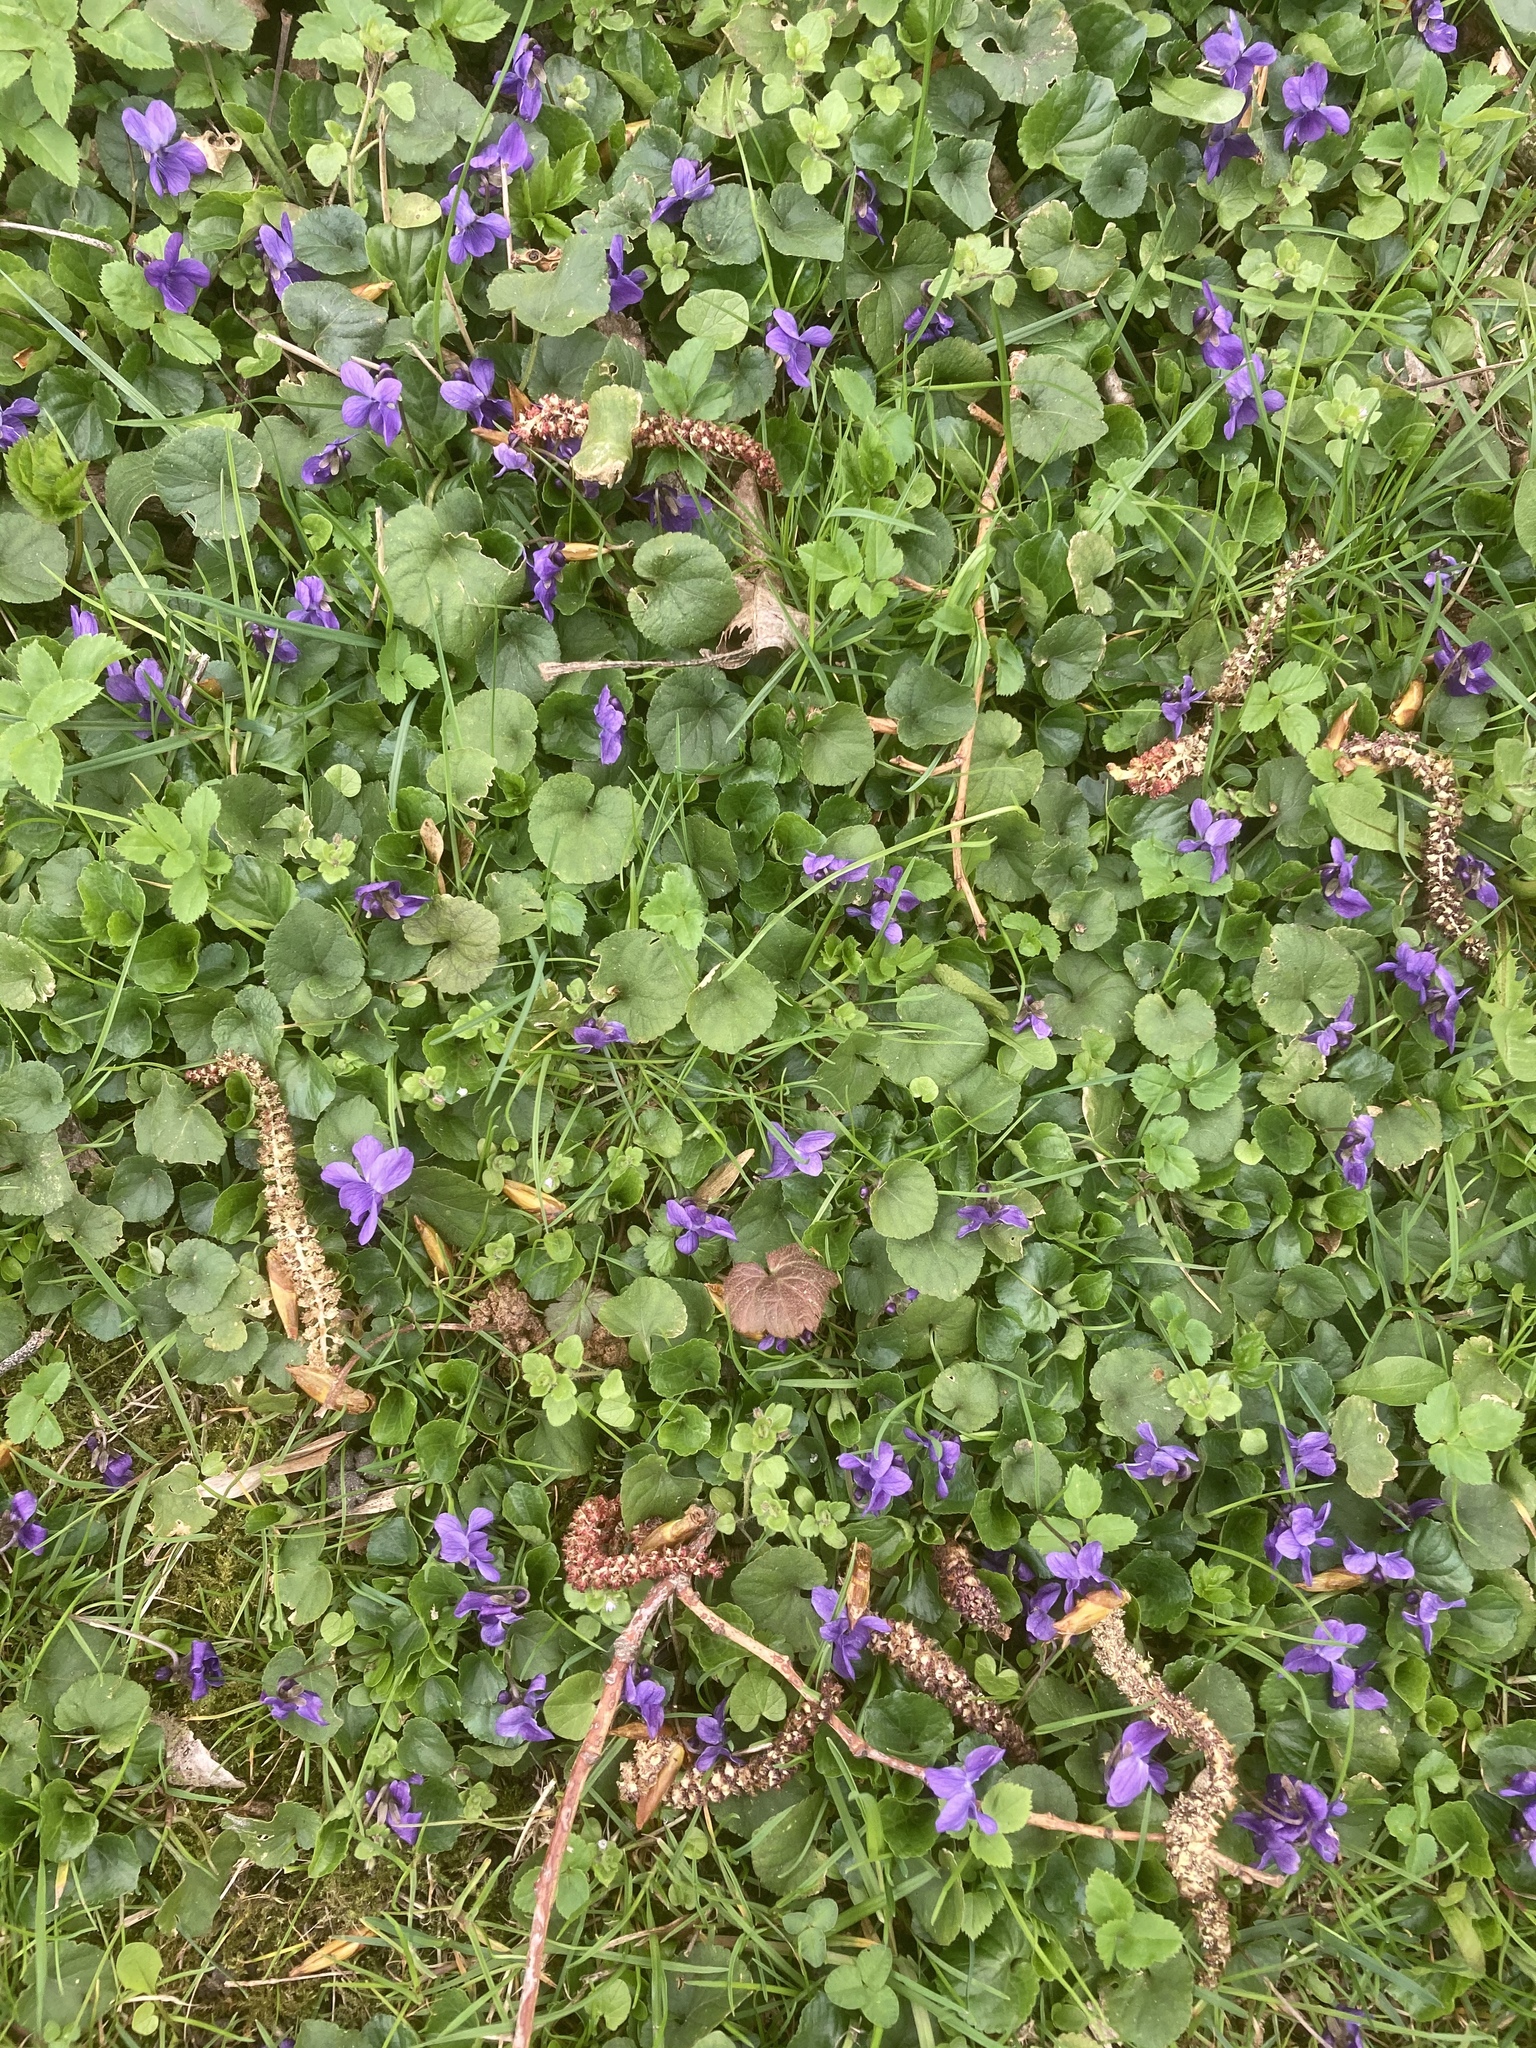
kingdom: Plantae
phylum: Tracheophyta
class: Magnoliopsida
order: Malpighiales
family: Violaceae
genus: Viola
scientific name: Viola odorata
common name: Sweet violet
